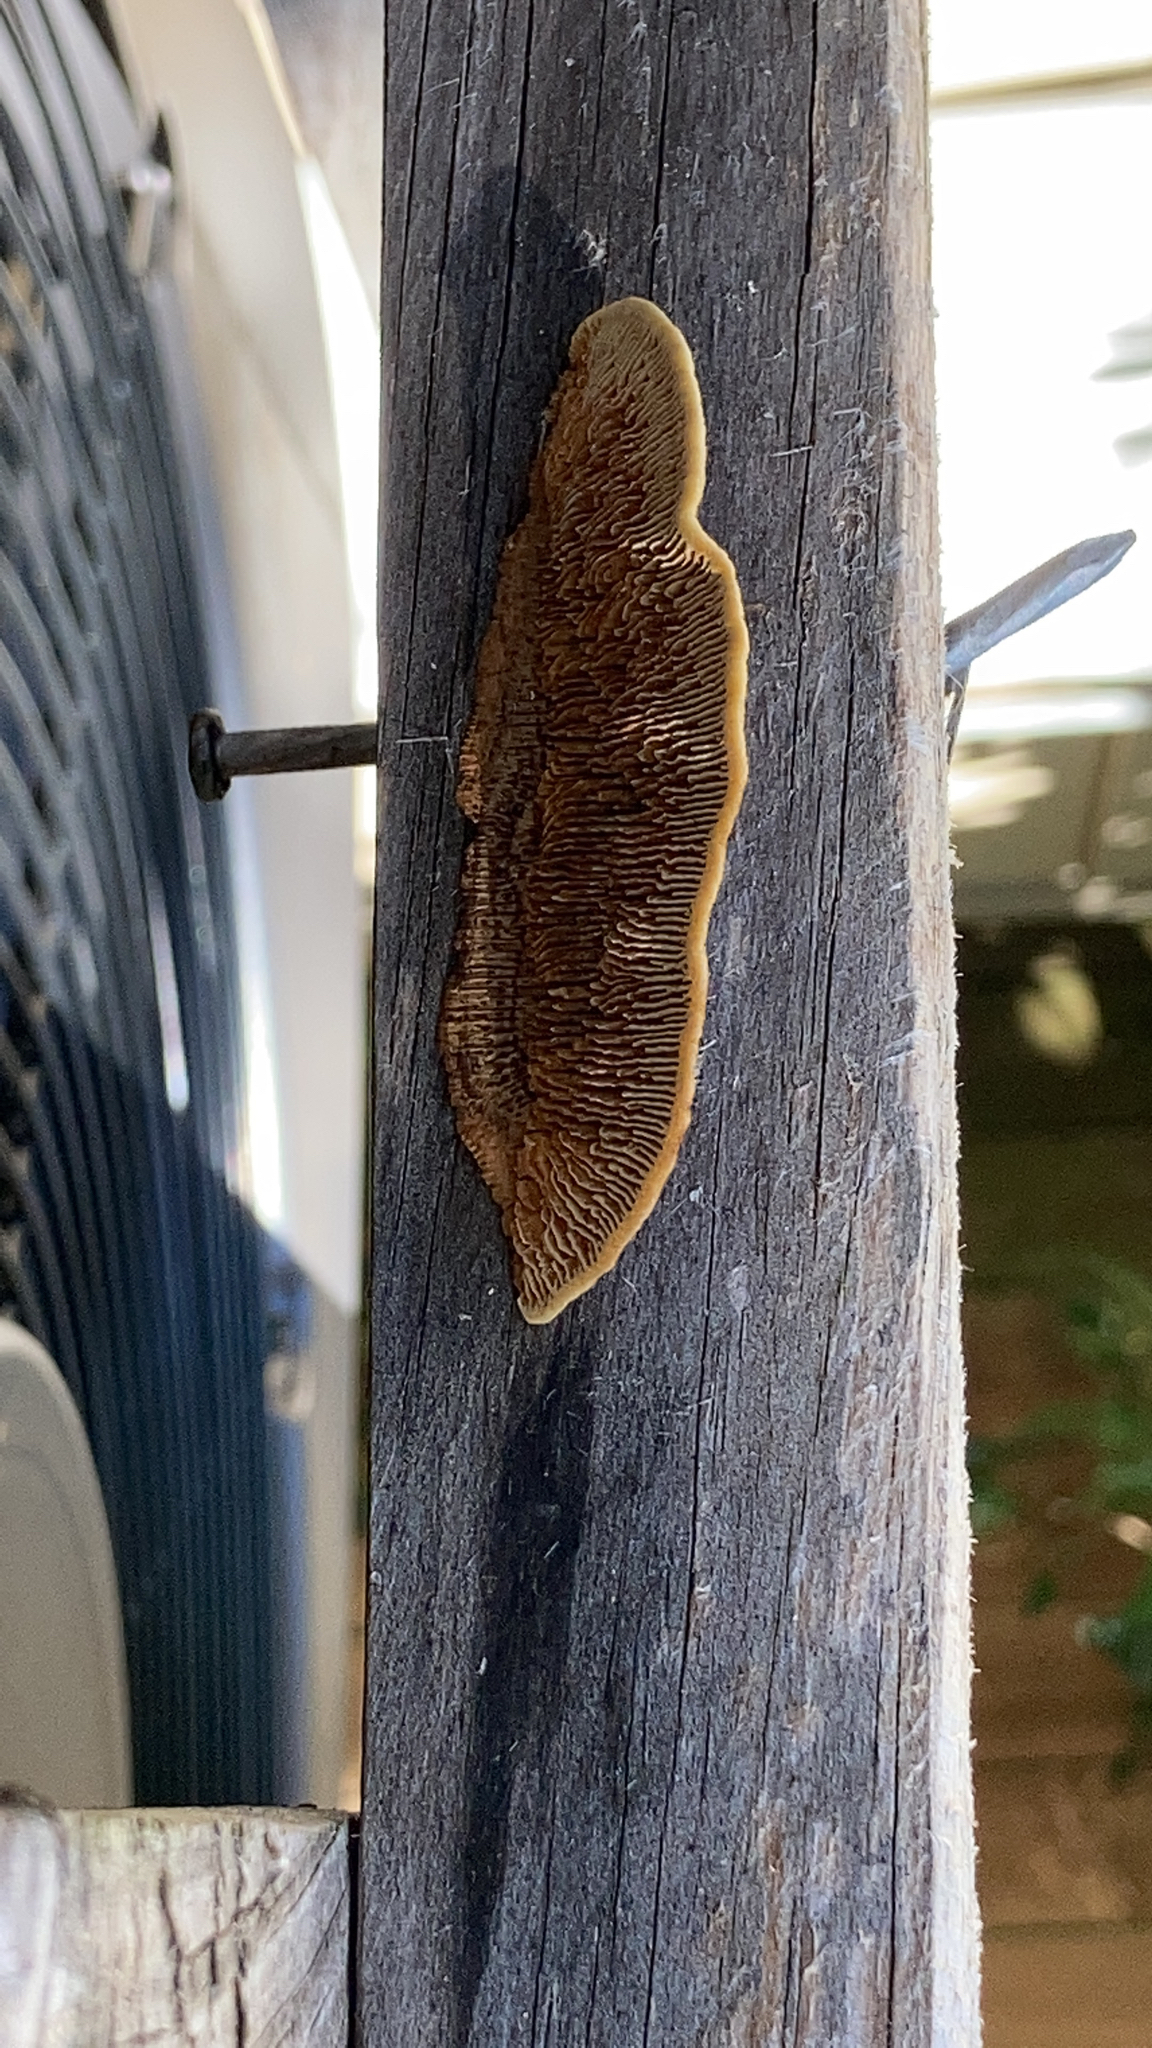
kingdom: Fungi
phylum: Basidiomycota
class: Agaricomycetes
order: Gloeophyllales
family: Gloeophyllaceae
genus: Gloeophyllum
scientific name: Gloeophyllum sepiarium
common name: Conifer mazegill
